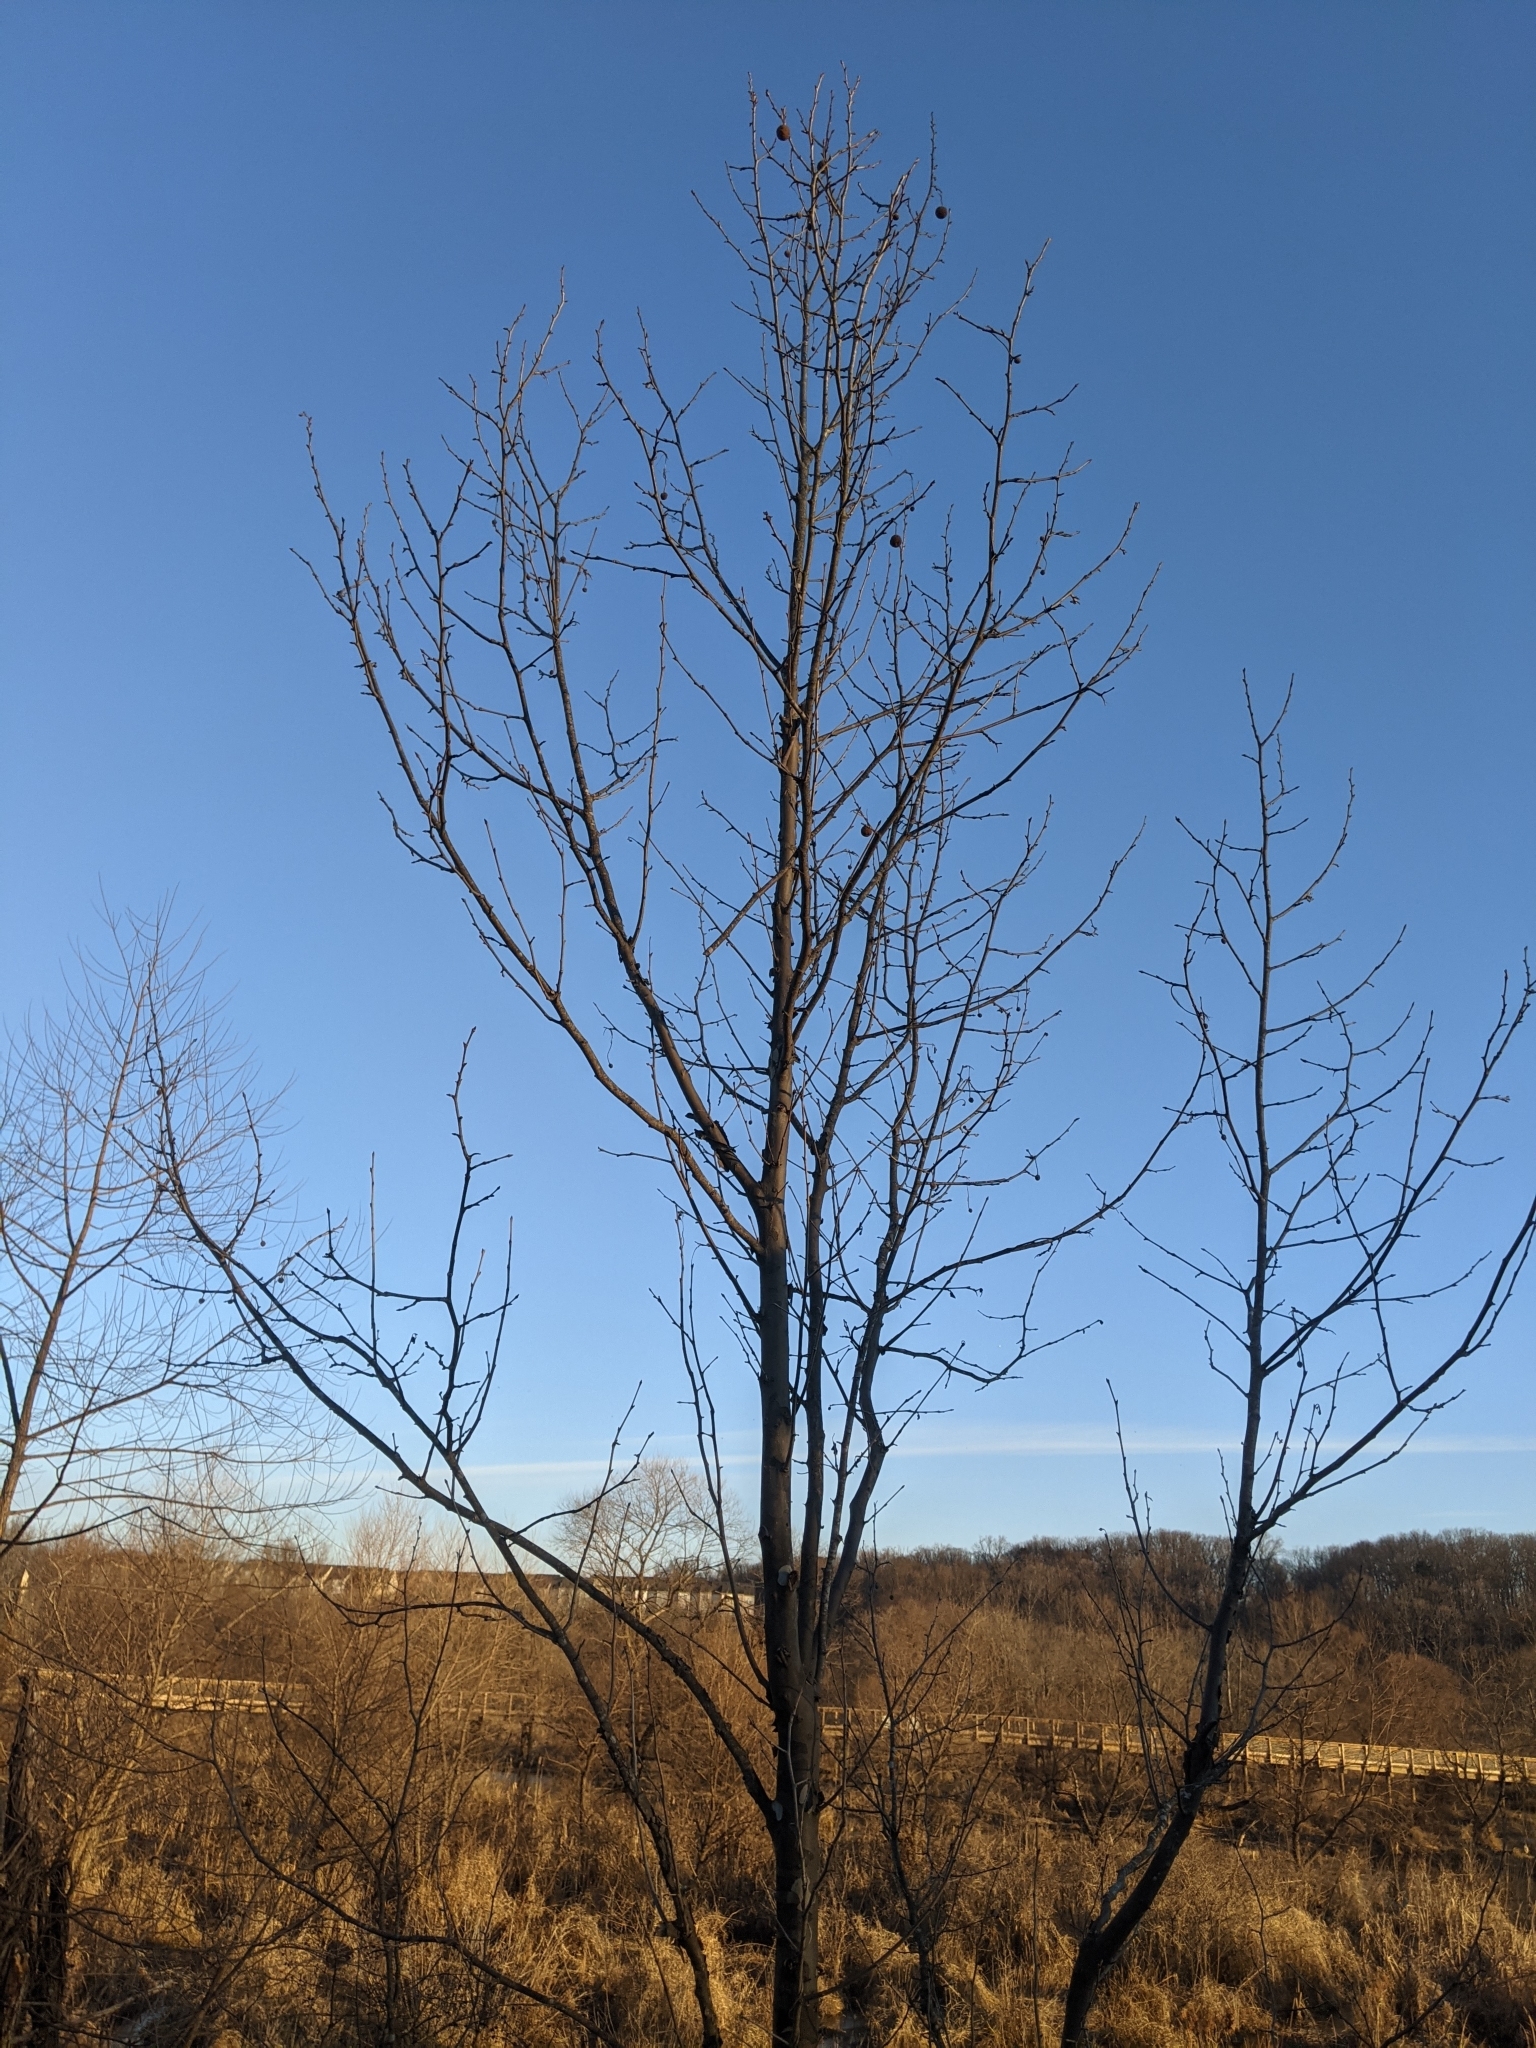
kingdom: Plantae
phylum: Tracheophyta
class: Magnoliopsida
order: Proteales
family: Platanaceae
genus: Platanus
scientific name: Platanus occidentalis
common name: American sycamore
